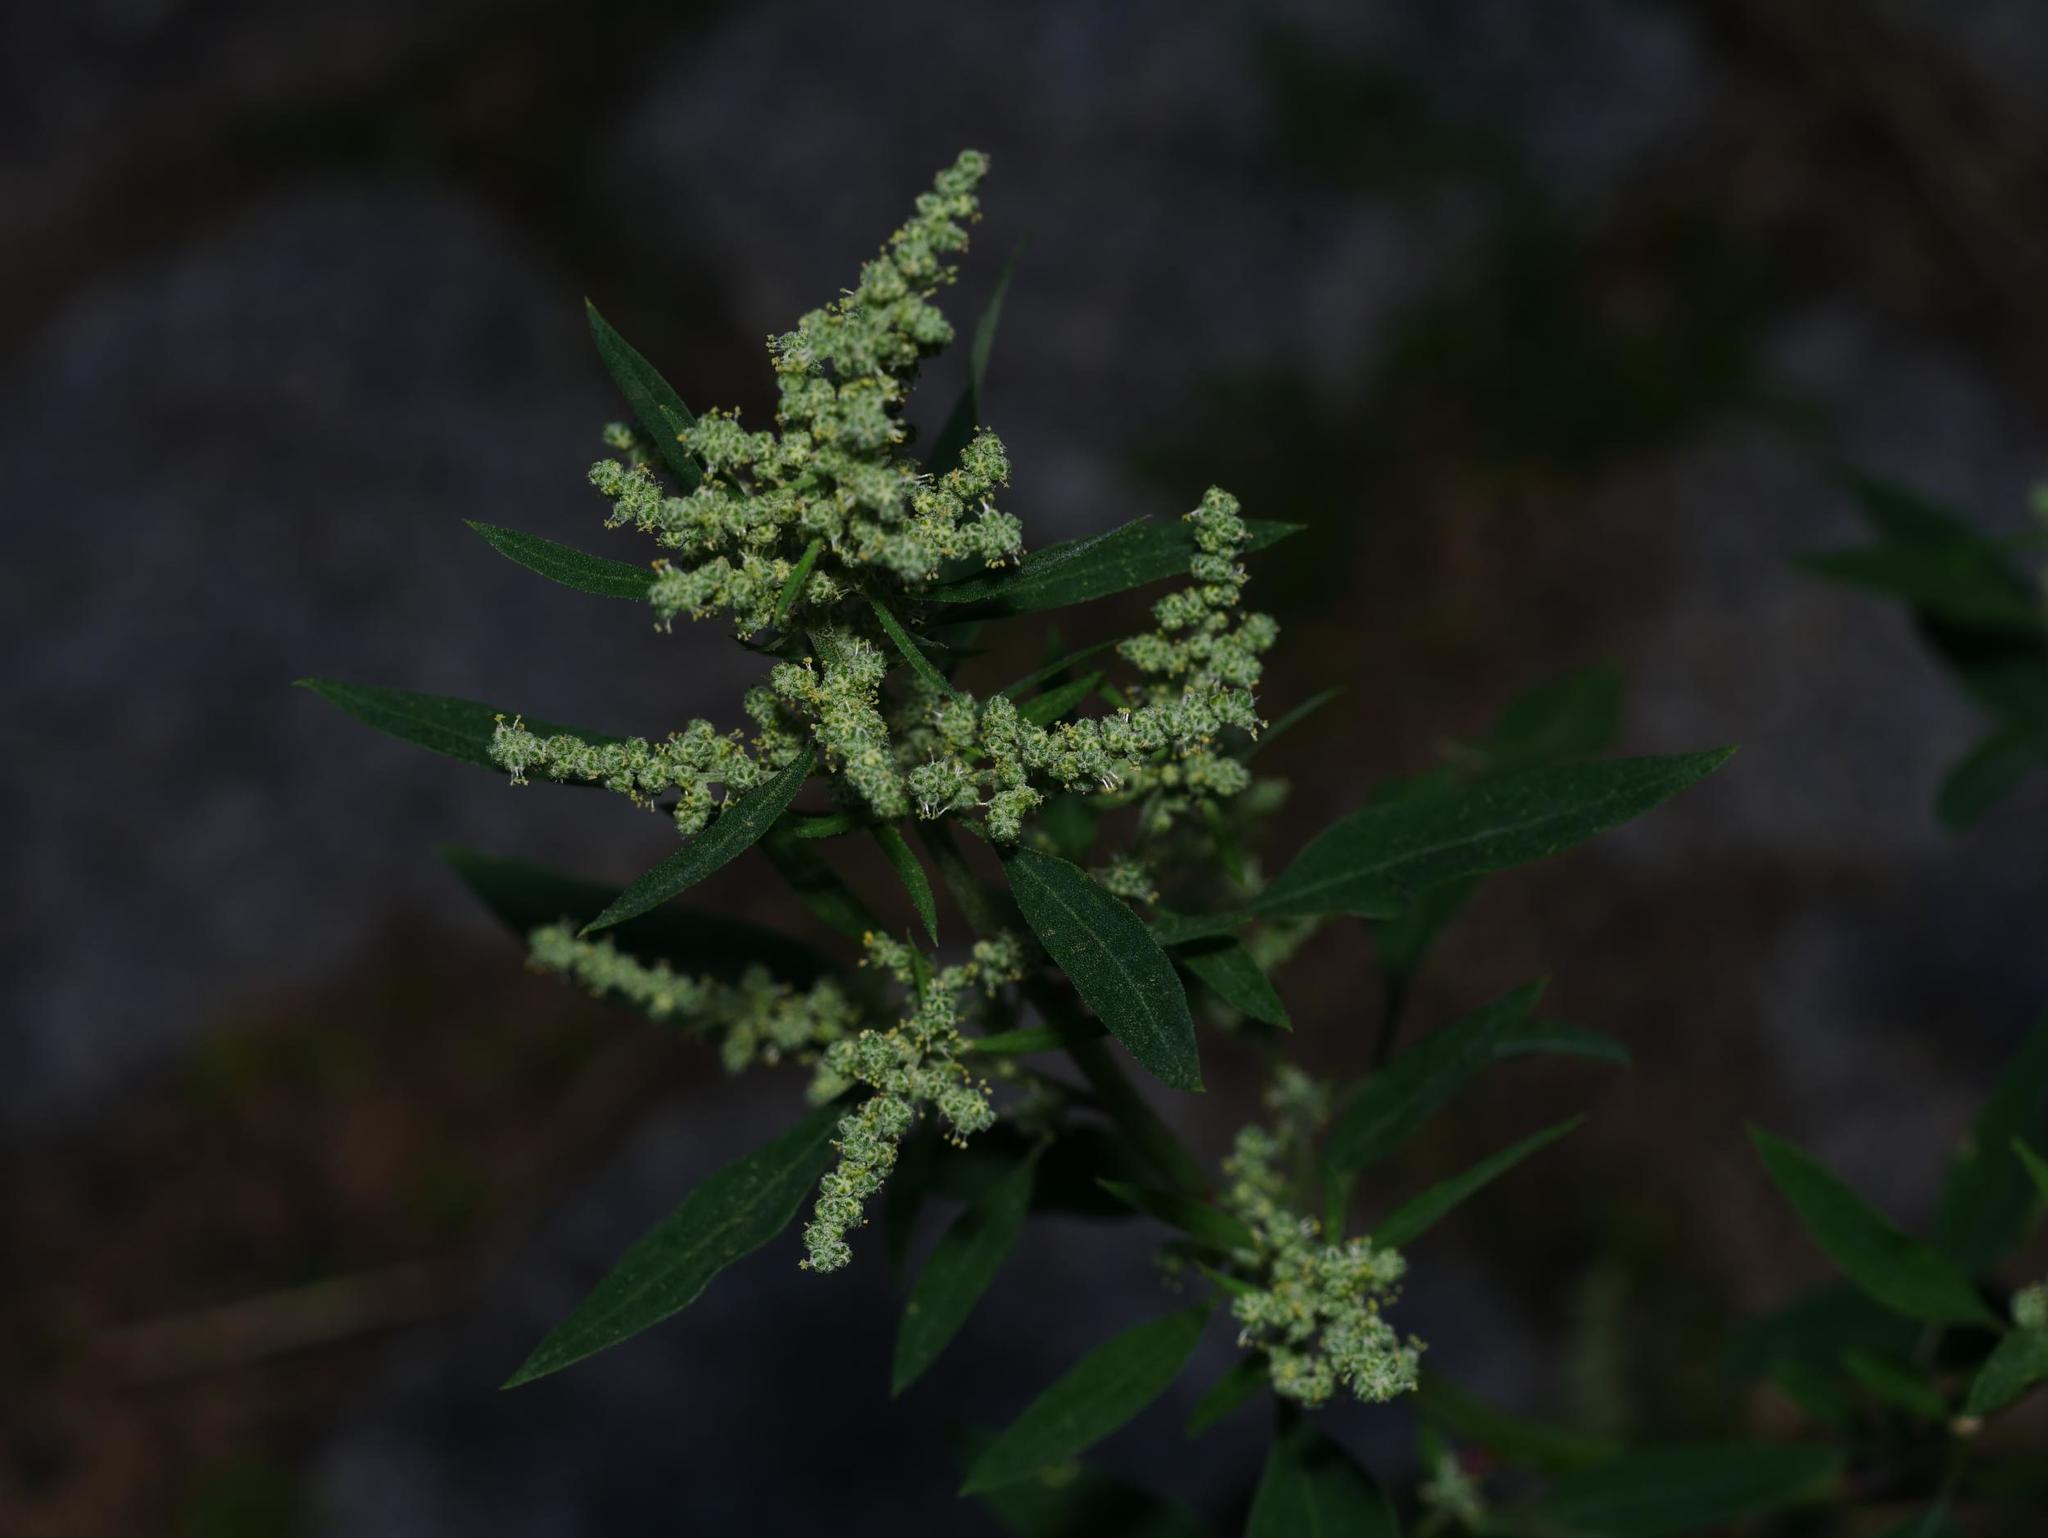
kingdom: Plantae
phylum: Tracheophyta
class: Magnoliopsida
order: Caryophyllales
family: Amaranthaceae
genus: Chenopodium
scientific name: Chenopodium album
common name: Fat-hen
